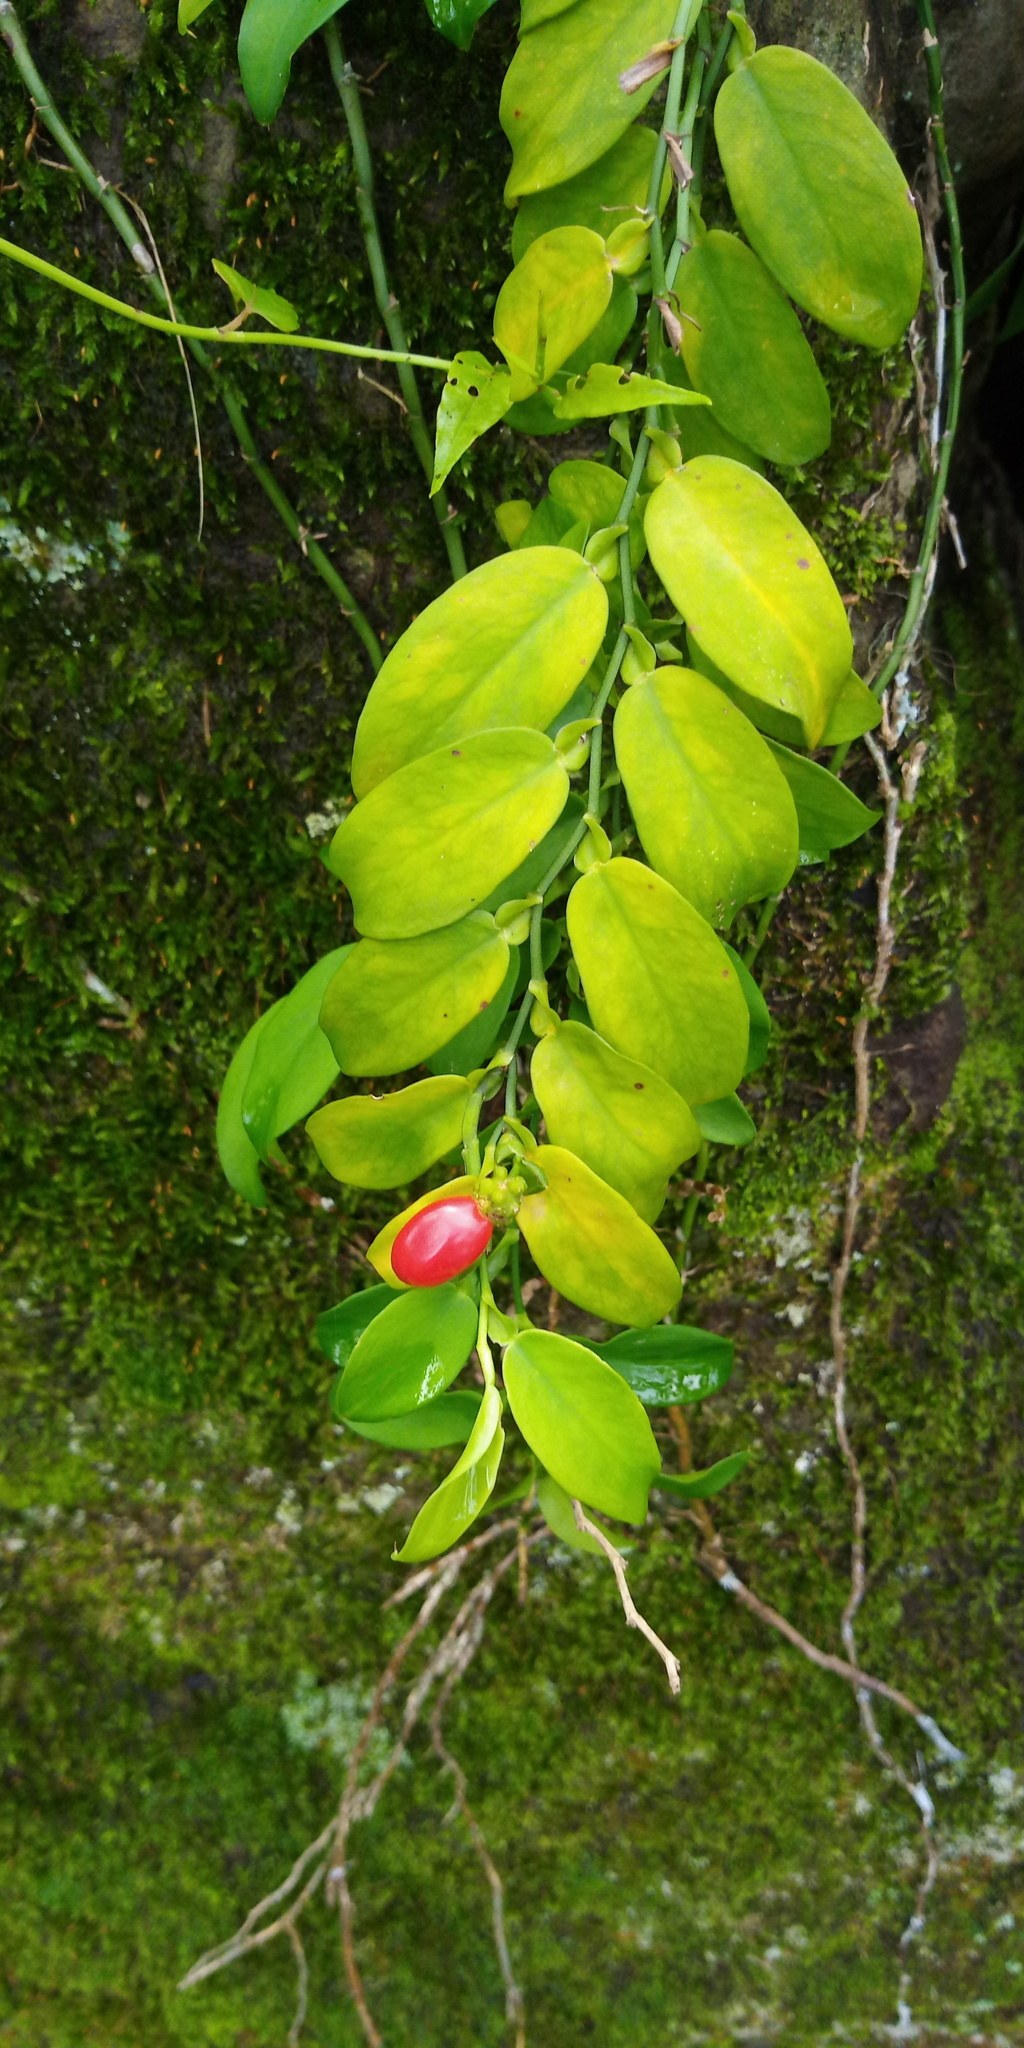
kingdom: Plantae
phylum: Tracheophyta
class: Liliopsida
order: Alismatales
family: Araceae
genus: Pothos
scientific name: Pothos chinensis
